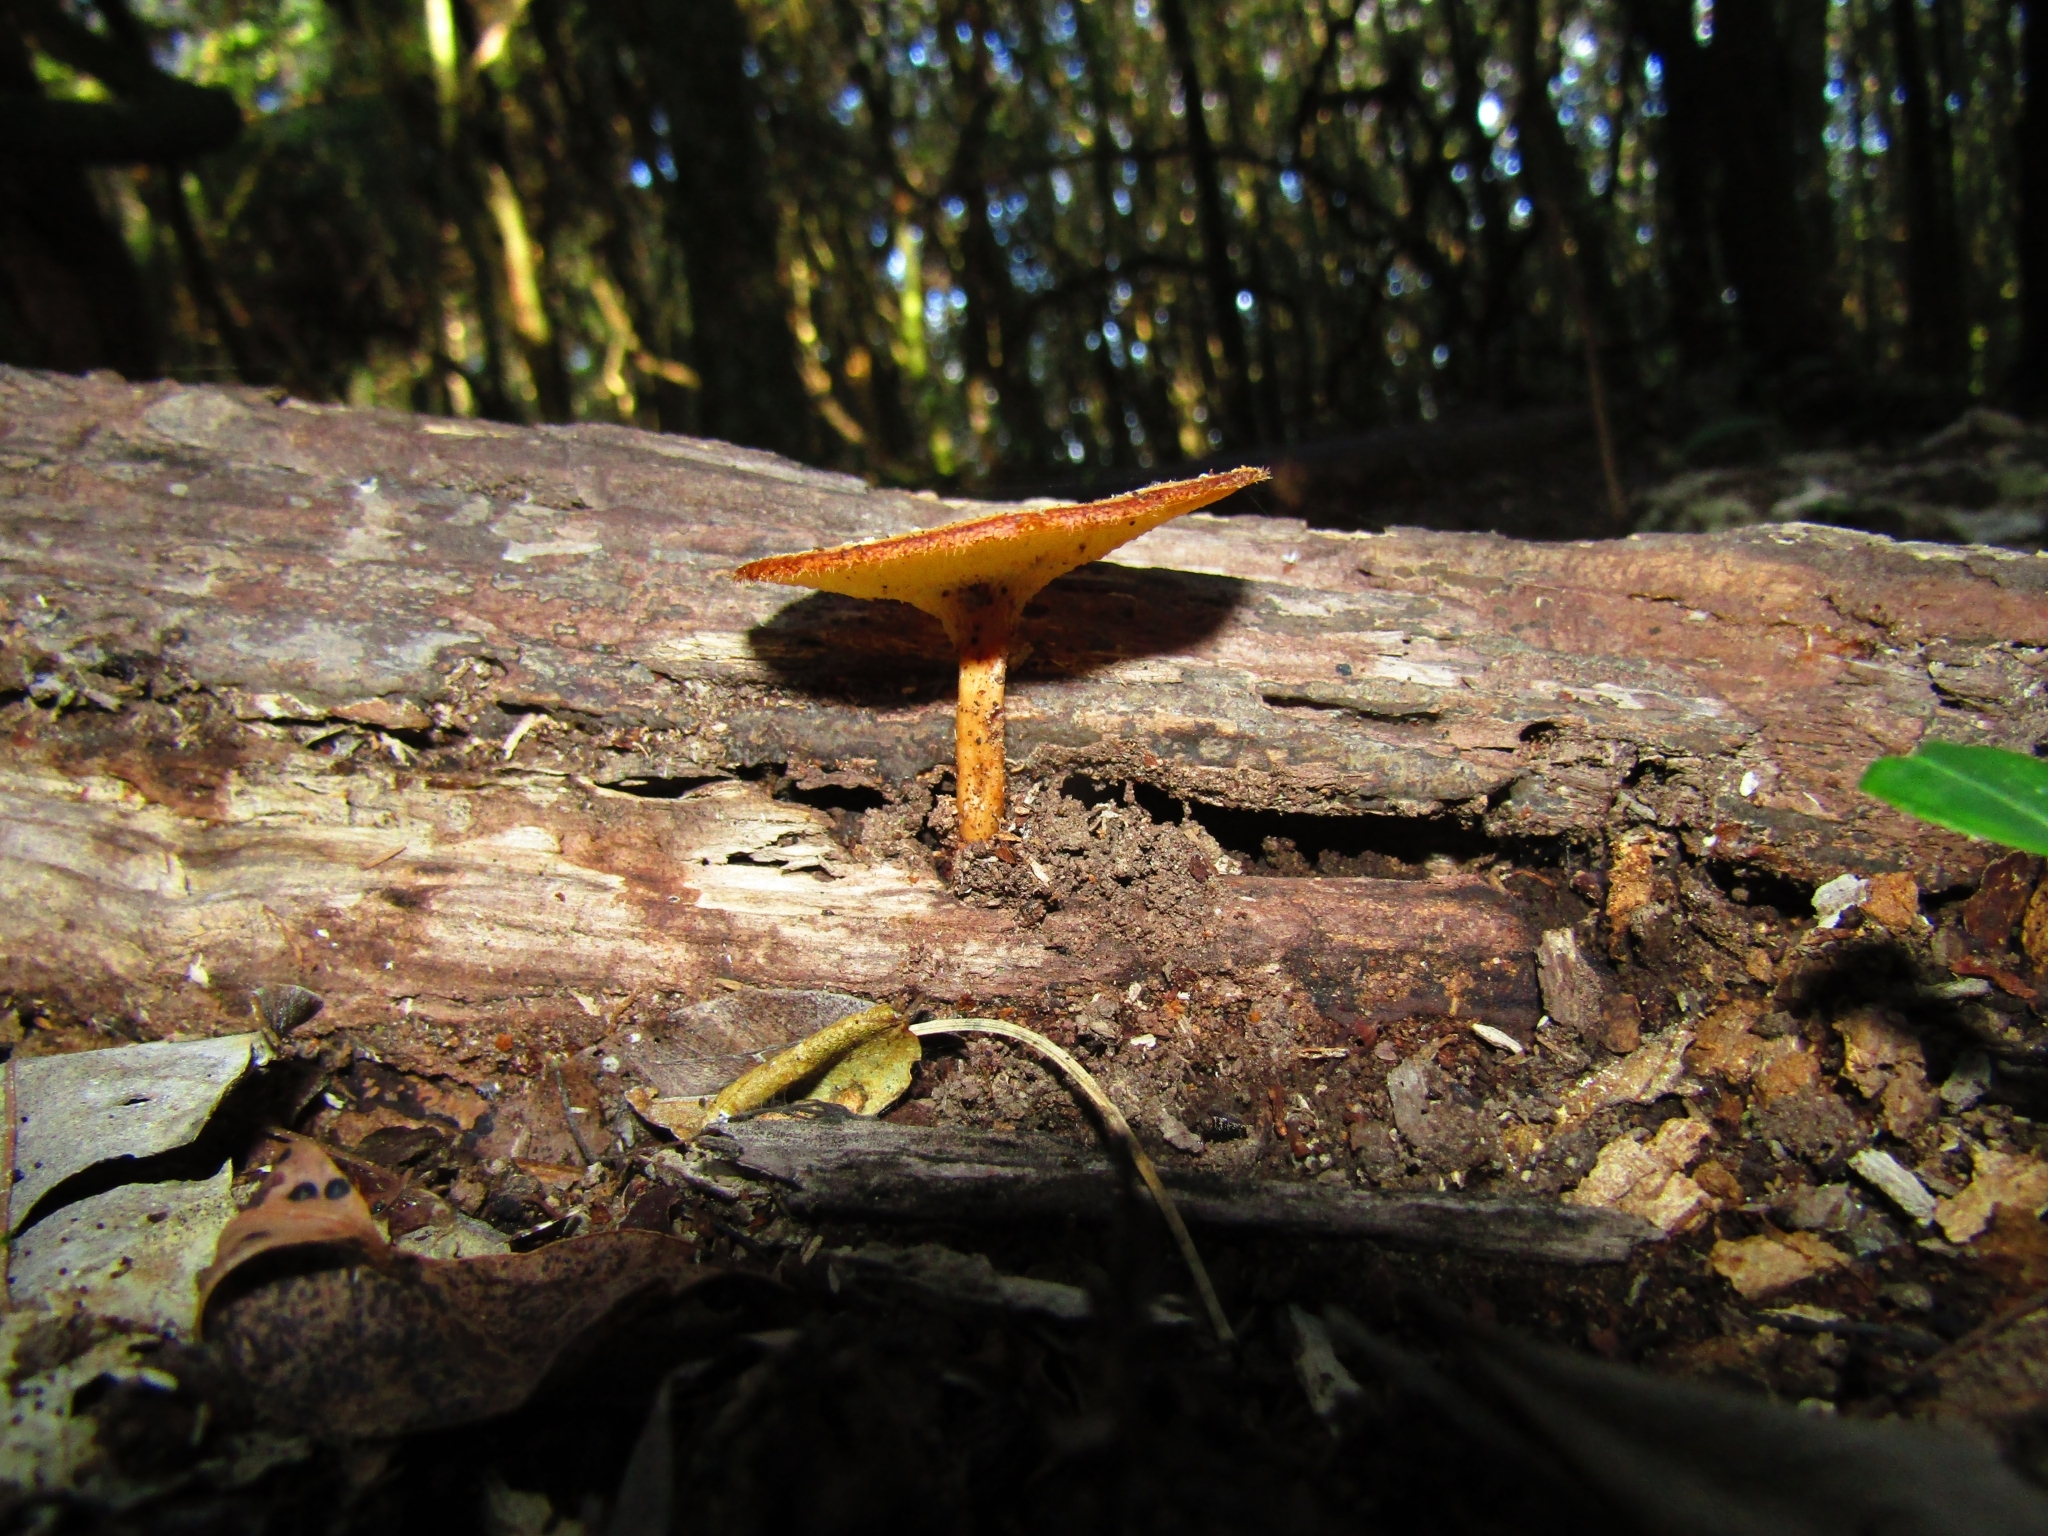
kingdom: Fungi
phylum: Basidiomycota
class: Agaricomycetes
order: Polyporales
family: Polyporaceae
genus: Lentinus
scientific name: Lentinus arcularius
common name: Spring polypore
